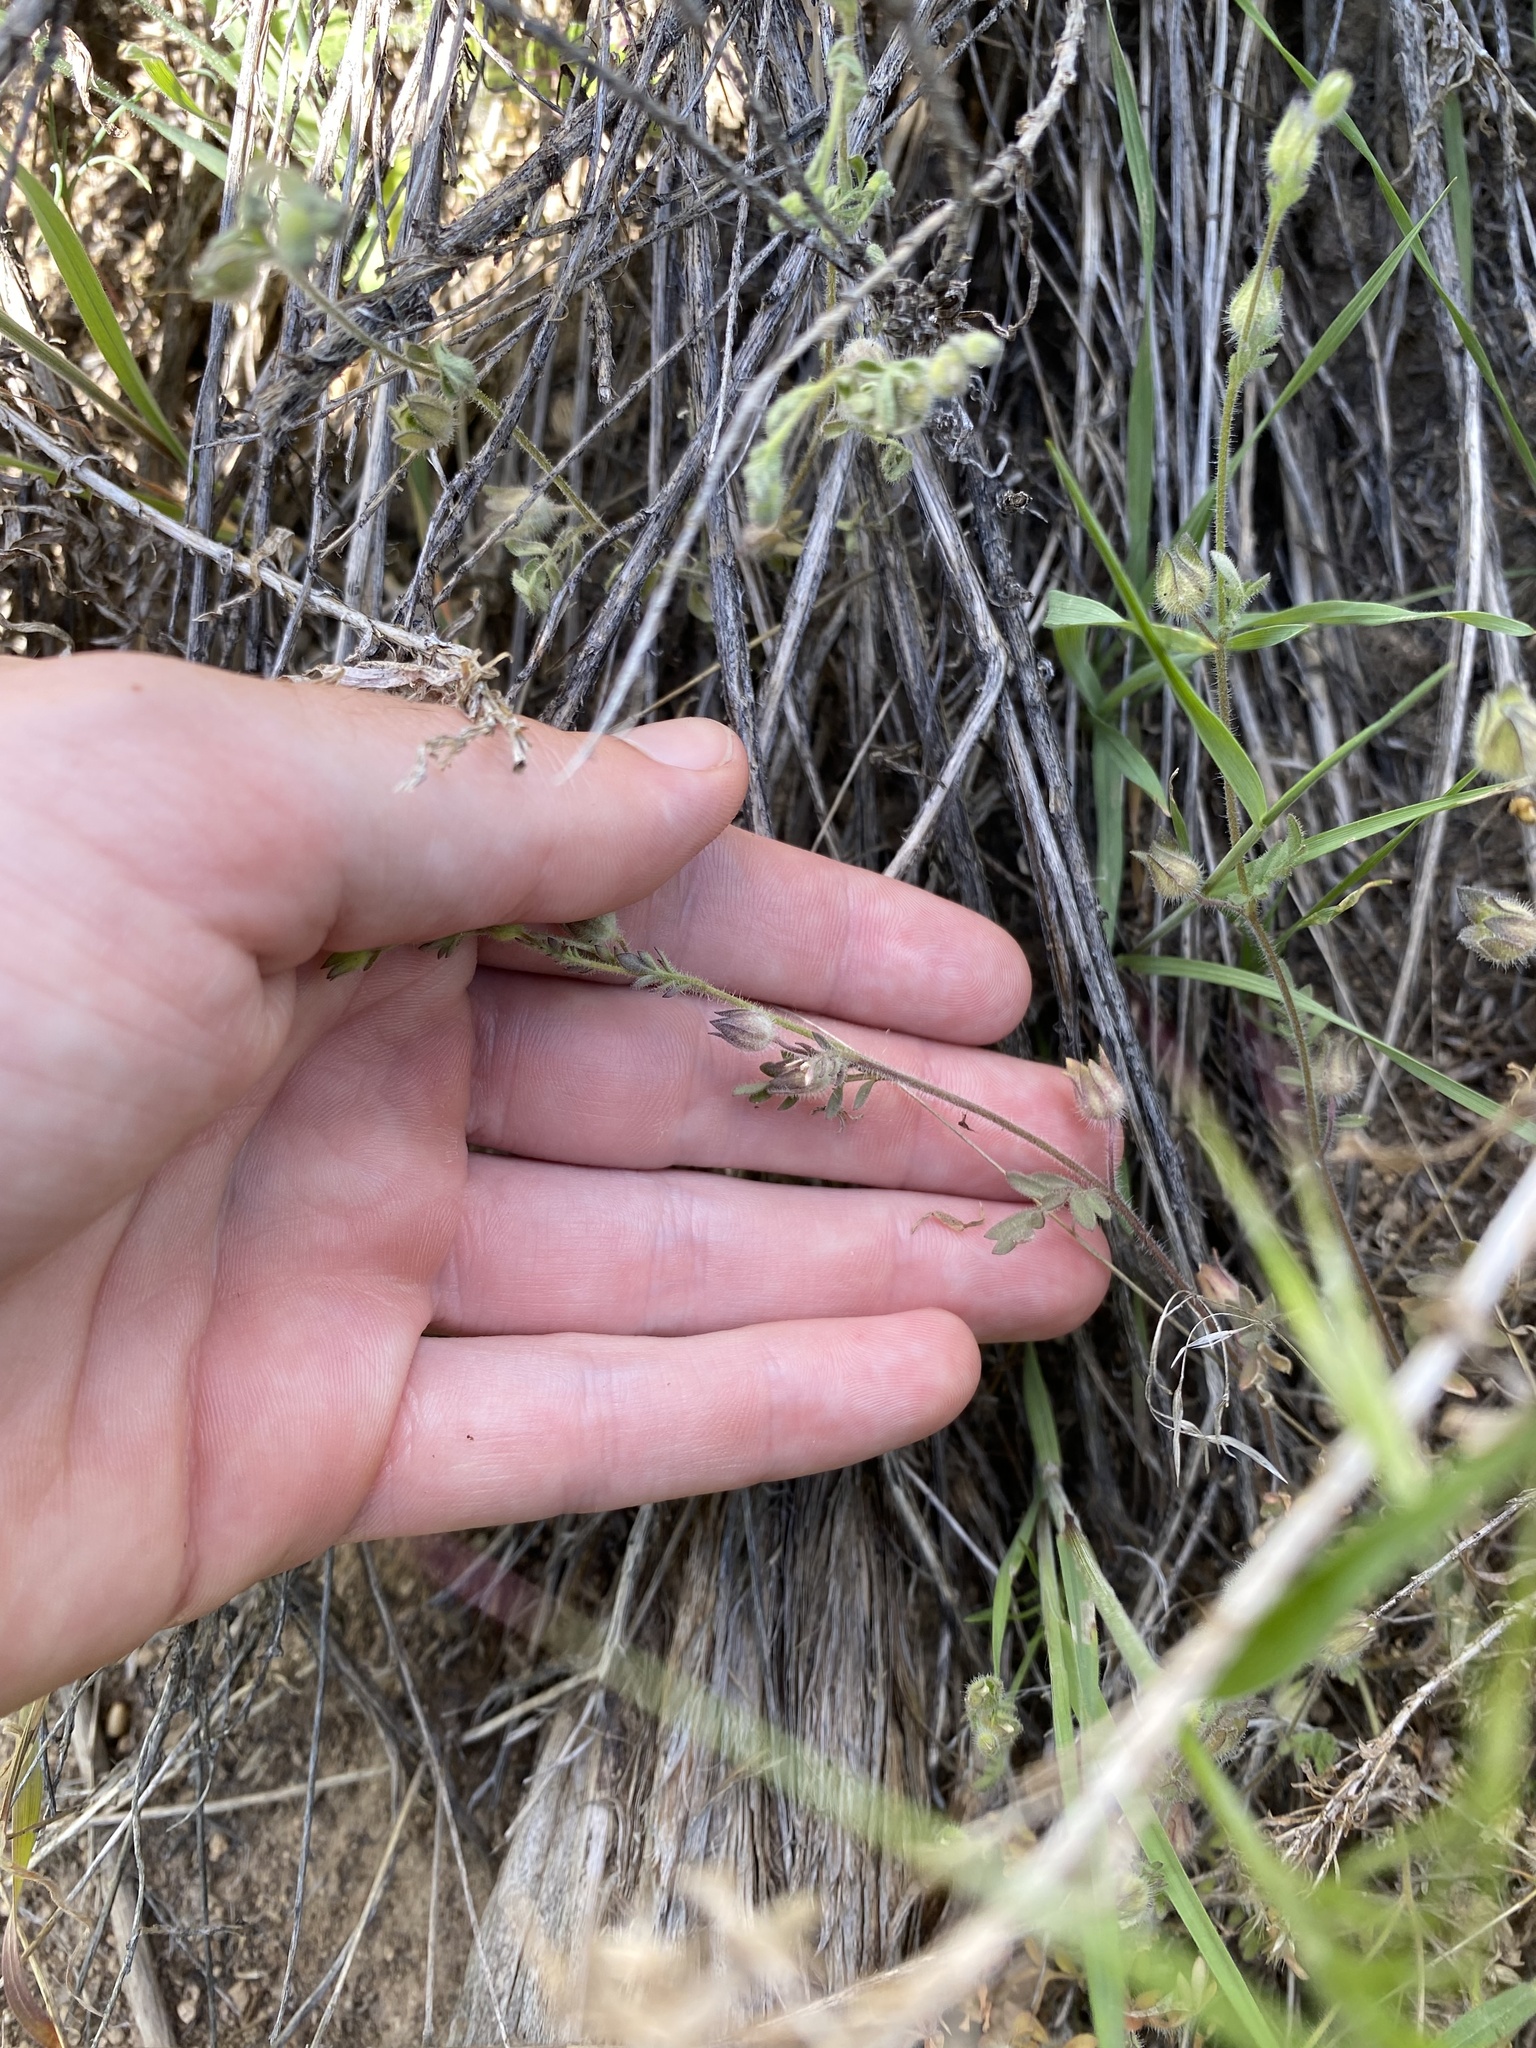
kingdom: Plantae
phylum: Tracheophyta
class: Magnoliopsida
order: Ericales
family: Polemoniaceae
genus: Polemonium
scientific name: Polemonium micranthum
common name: Annual jacob's-ladder
